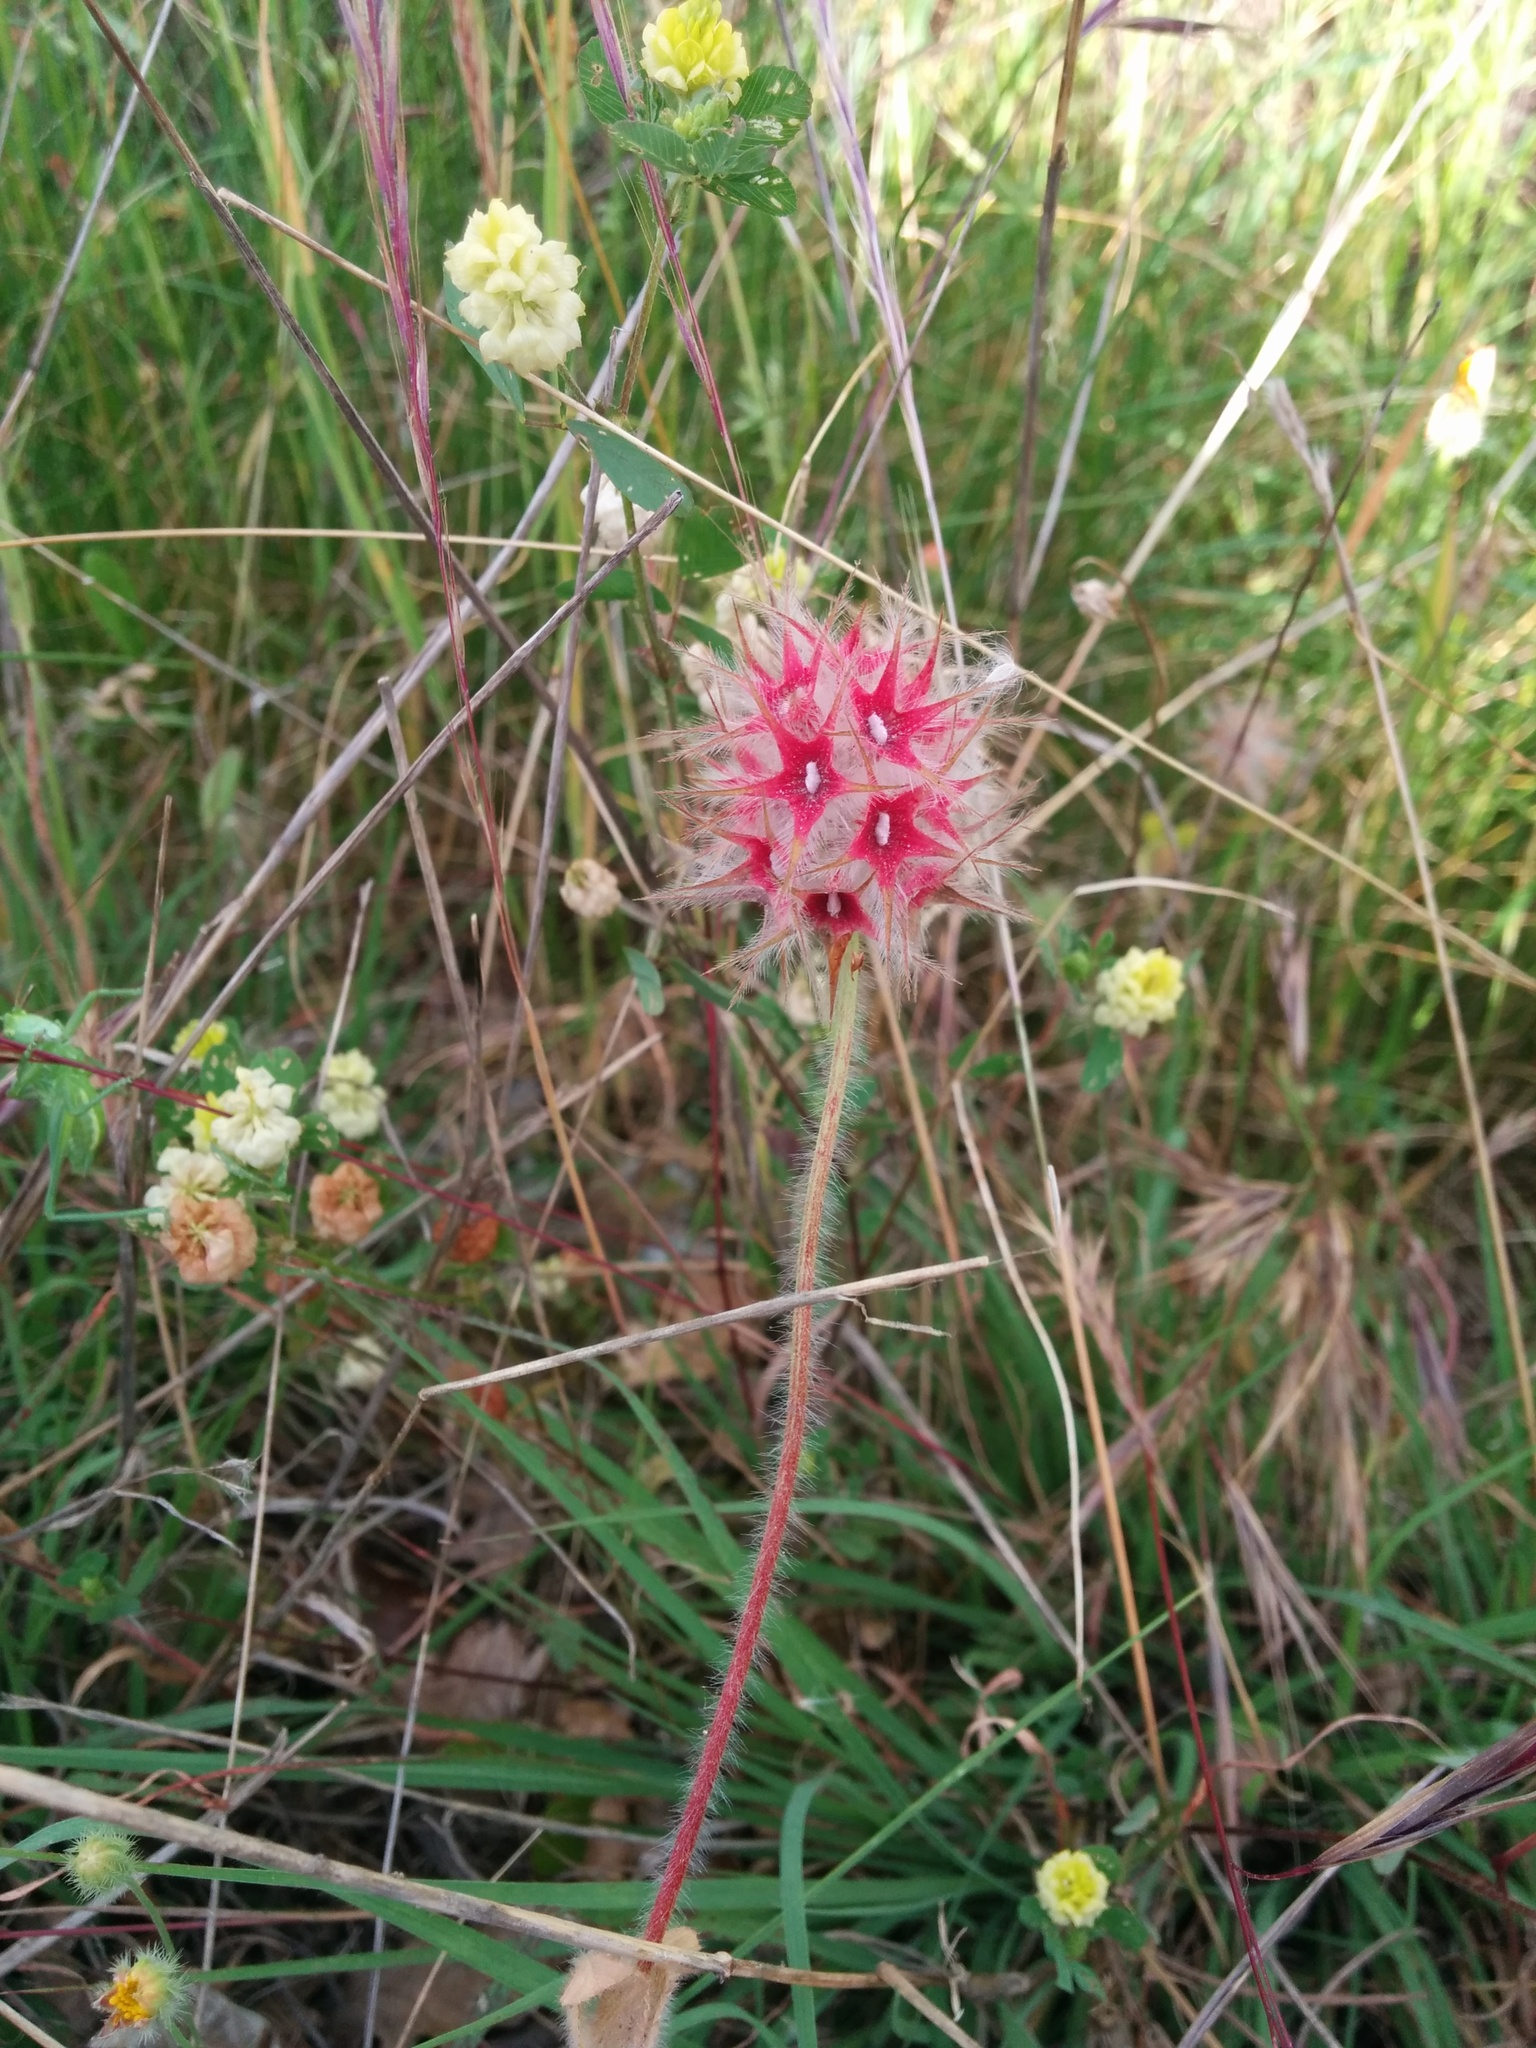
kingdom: Plantae
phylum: Tracheophyta
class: Magnoliopsida
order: Fabales
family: Fabaceae
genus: Trifolium
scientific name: Trifolium stellatum
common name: Starry clover
